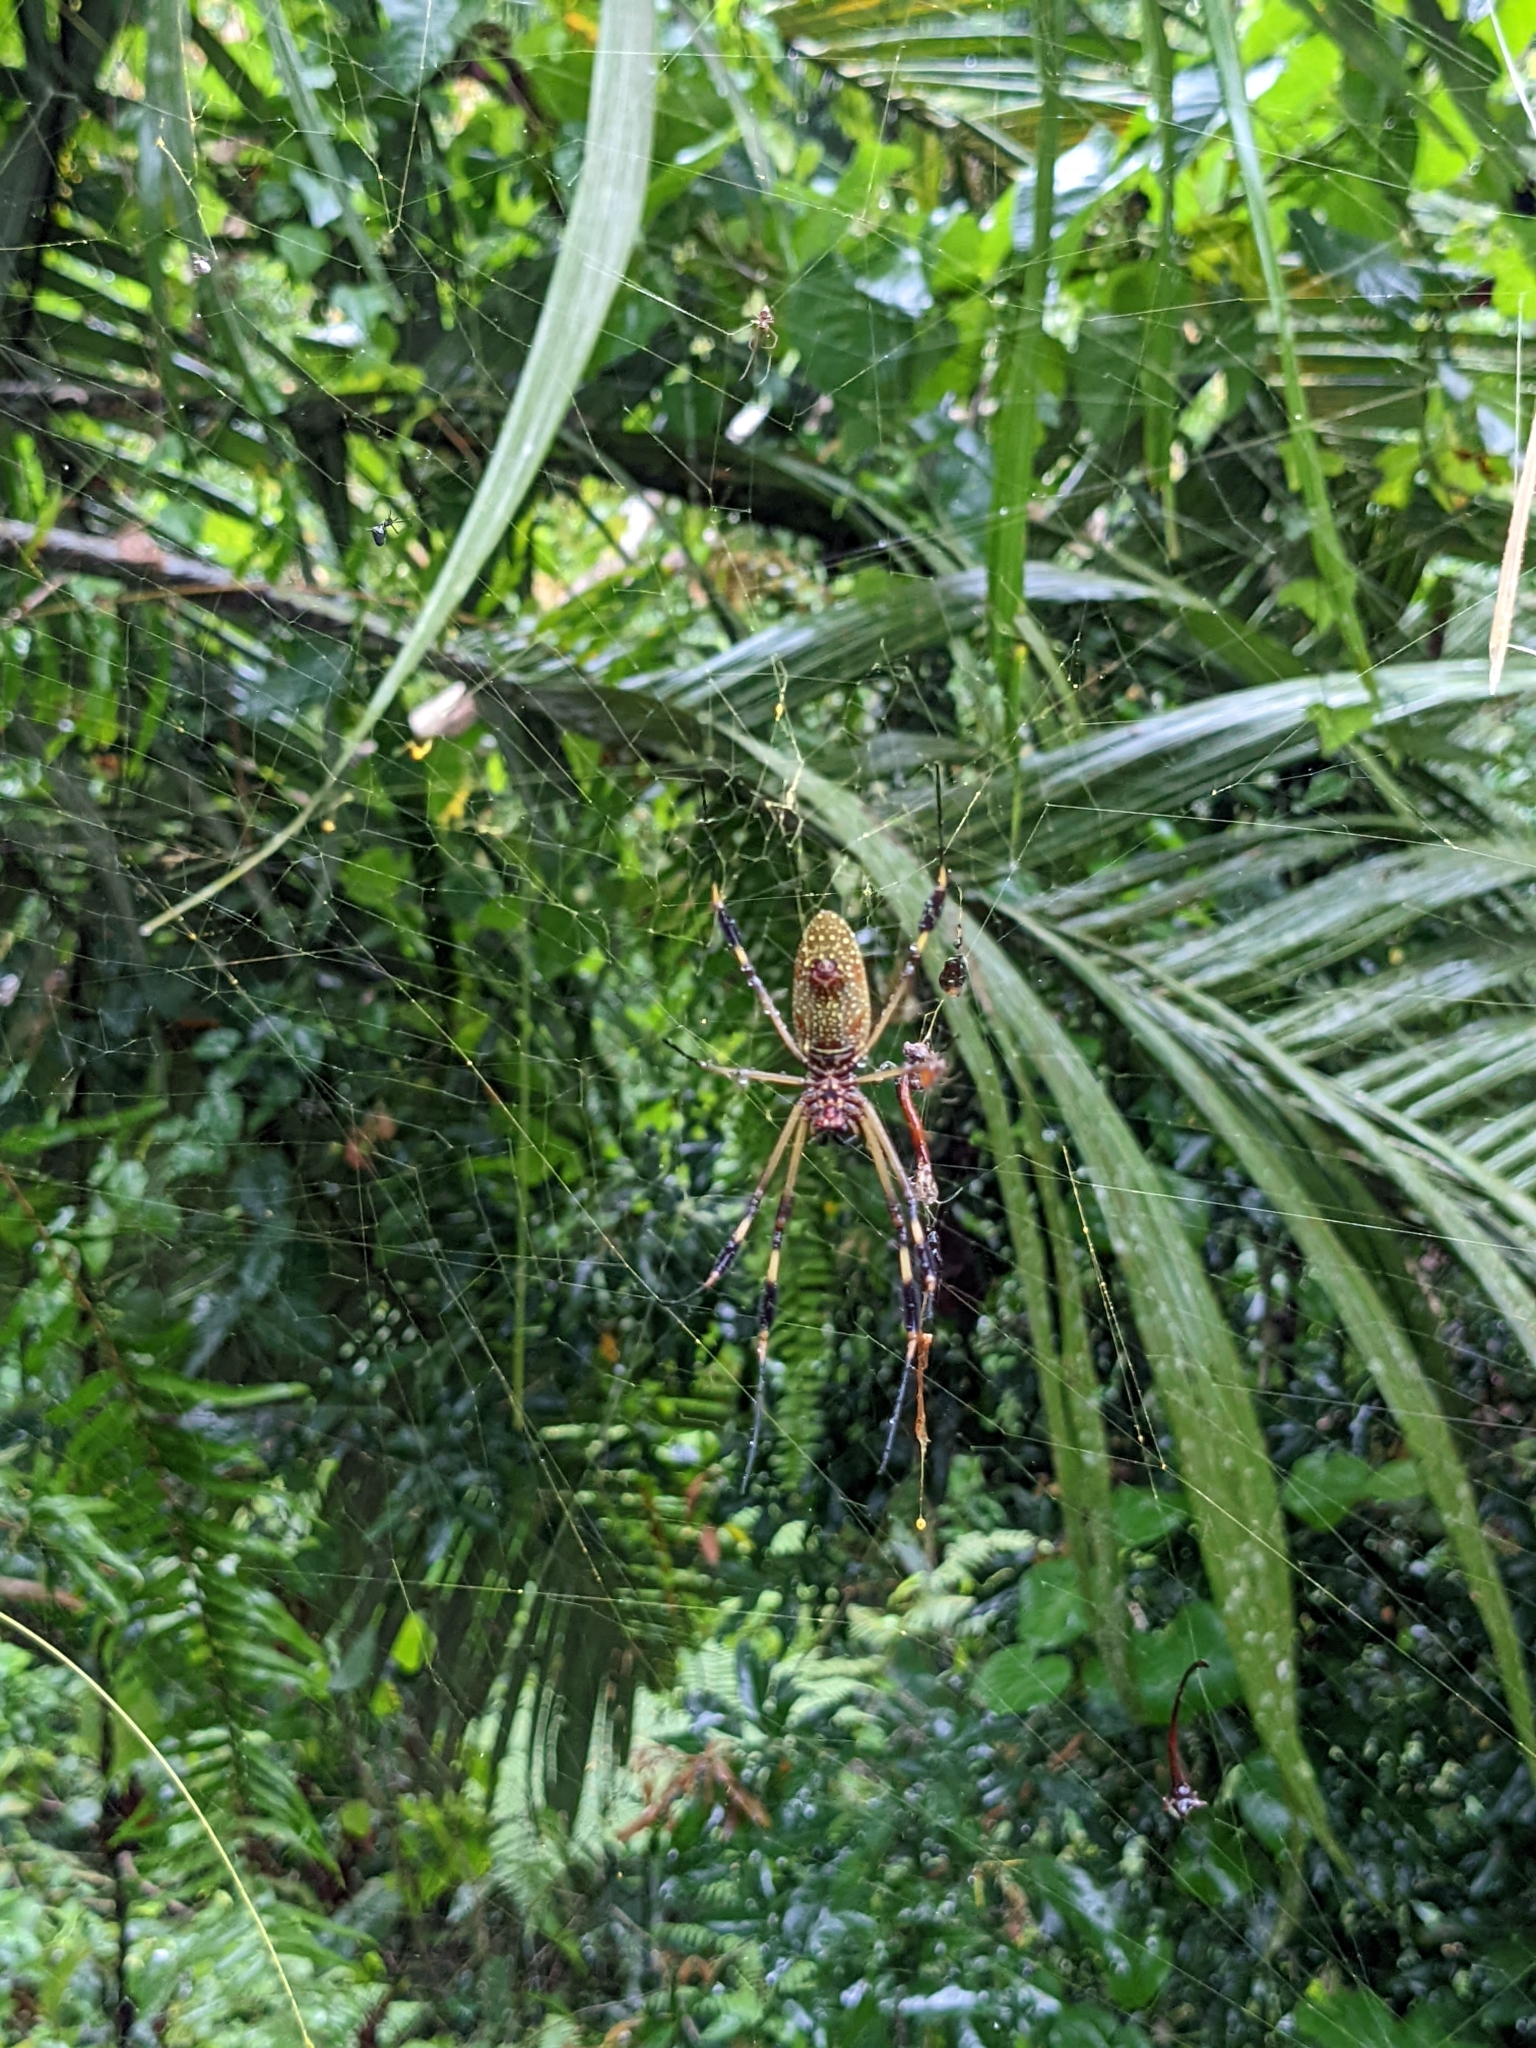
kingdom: Animalia
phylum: Arthropoda
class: Arachnida
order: Araneae
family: Araneidae
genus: Trichonephila
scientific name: Trichonephila clavipes
